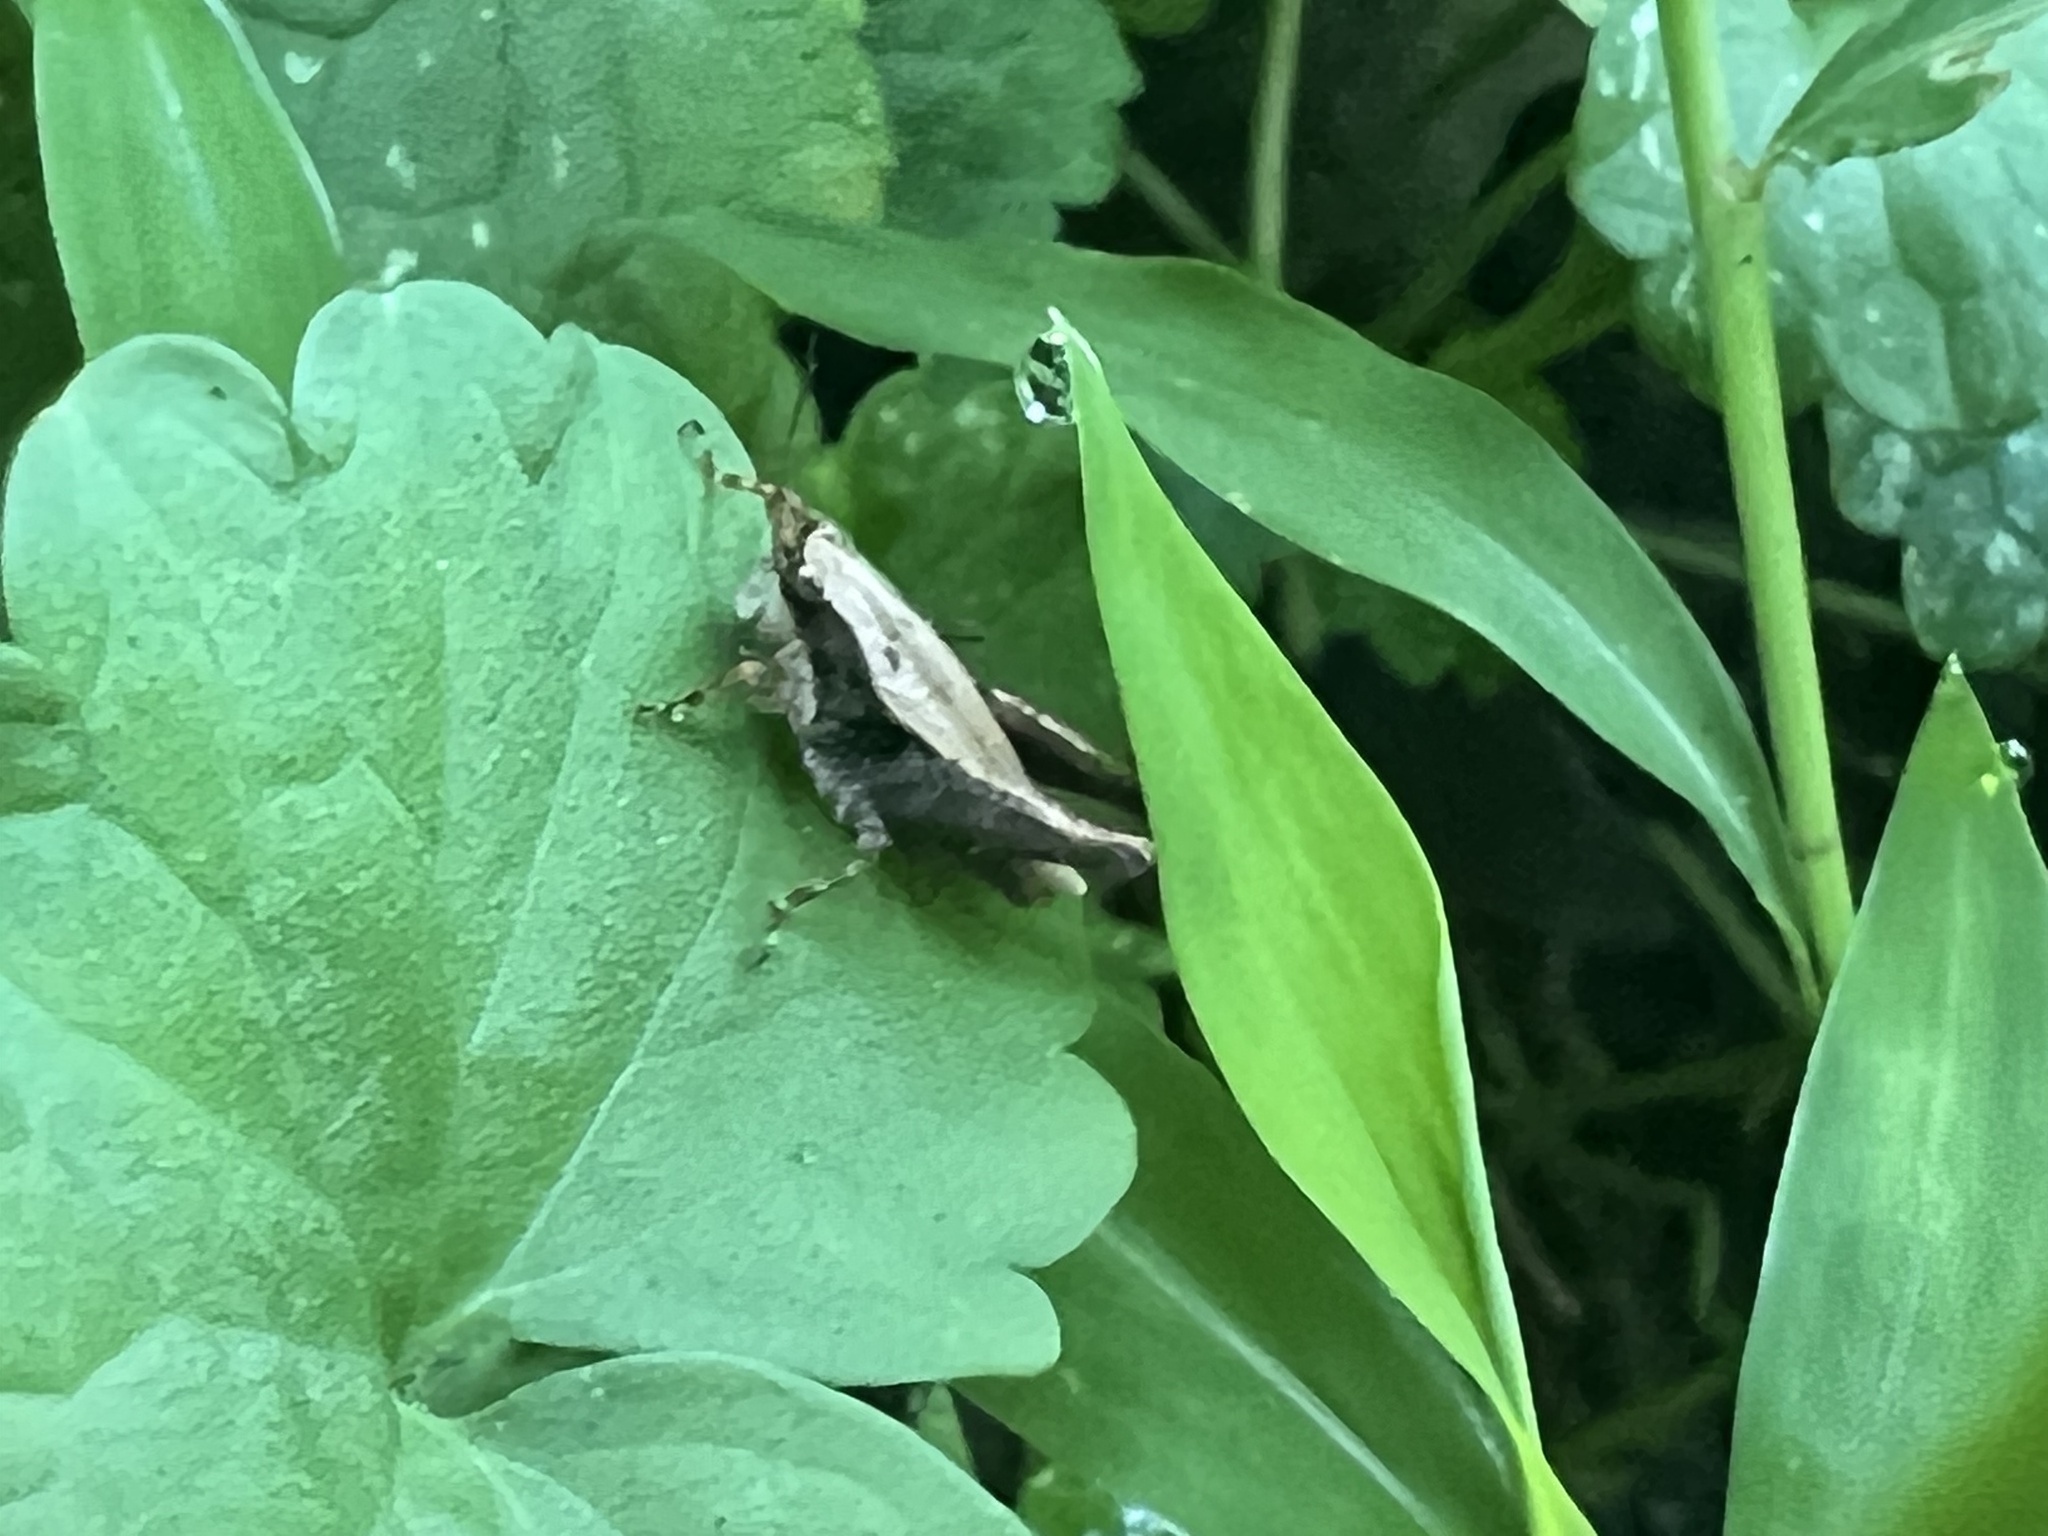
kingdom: Animalia
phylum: Arthropoda
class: Insecta
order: Orthoptera
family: Tetrigidae
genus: Tettigidea
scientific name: Tettigidea laterale
